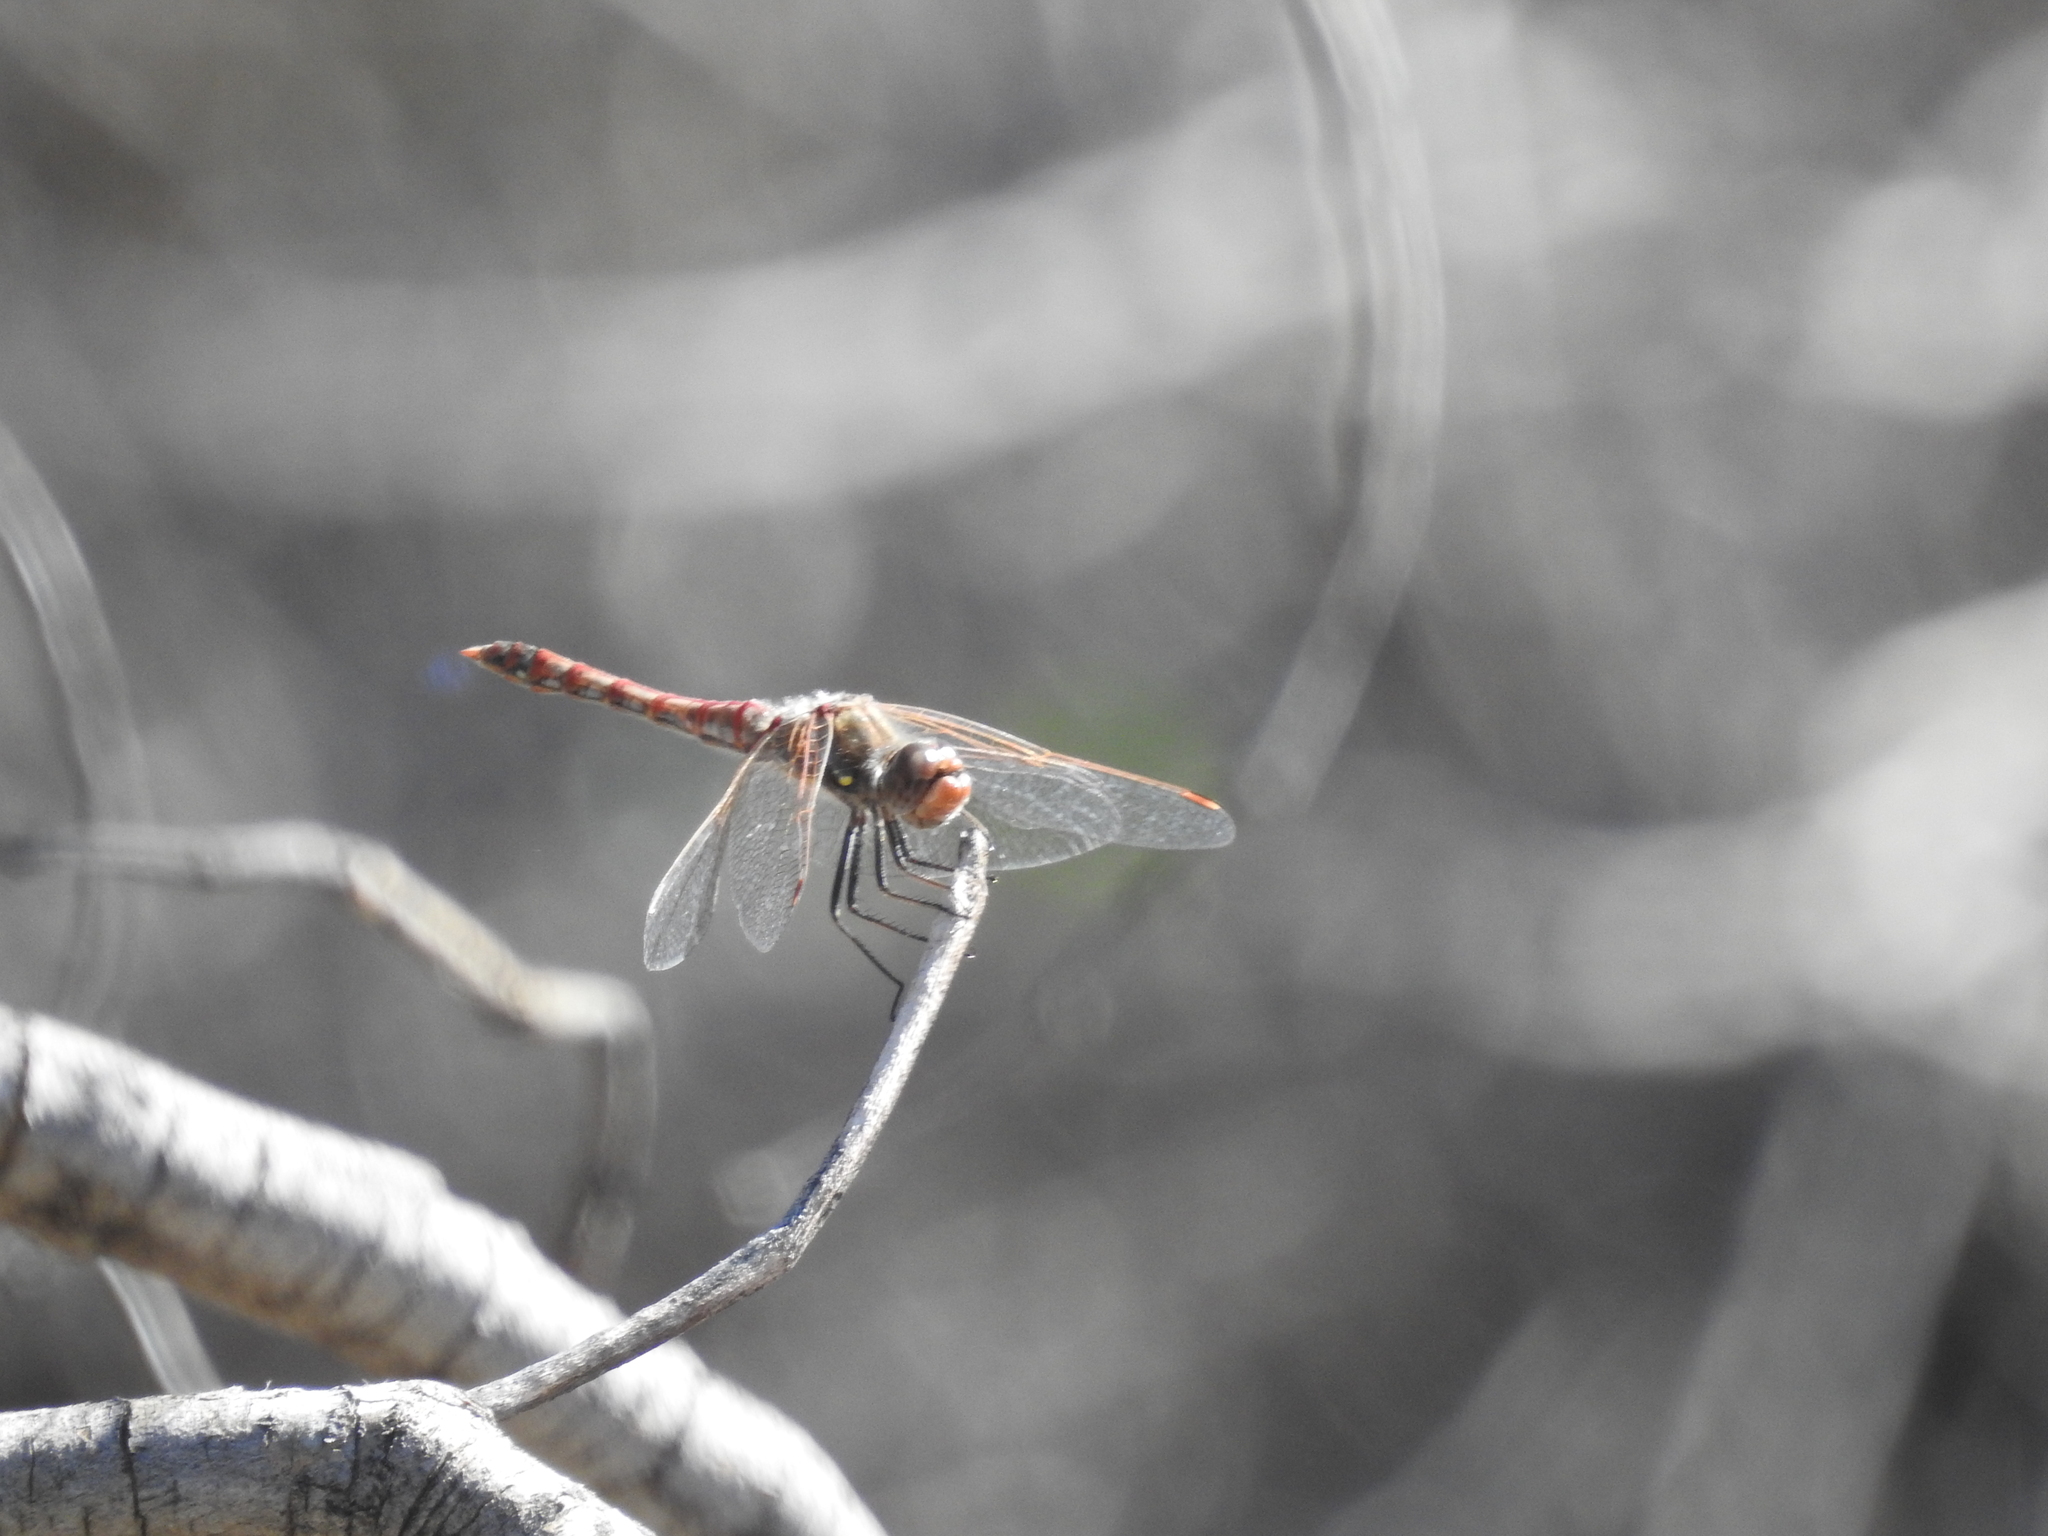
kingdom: Animalia
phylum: Arthropoda
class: Insecta
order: Odonata
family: Libellulidae
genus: Sympetrum
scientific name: Sympetrum corruptum
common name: Variegated meadowhawk
